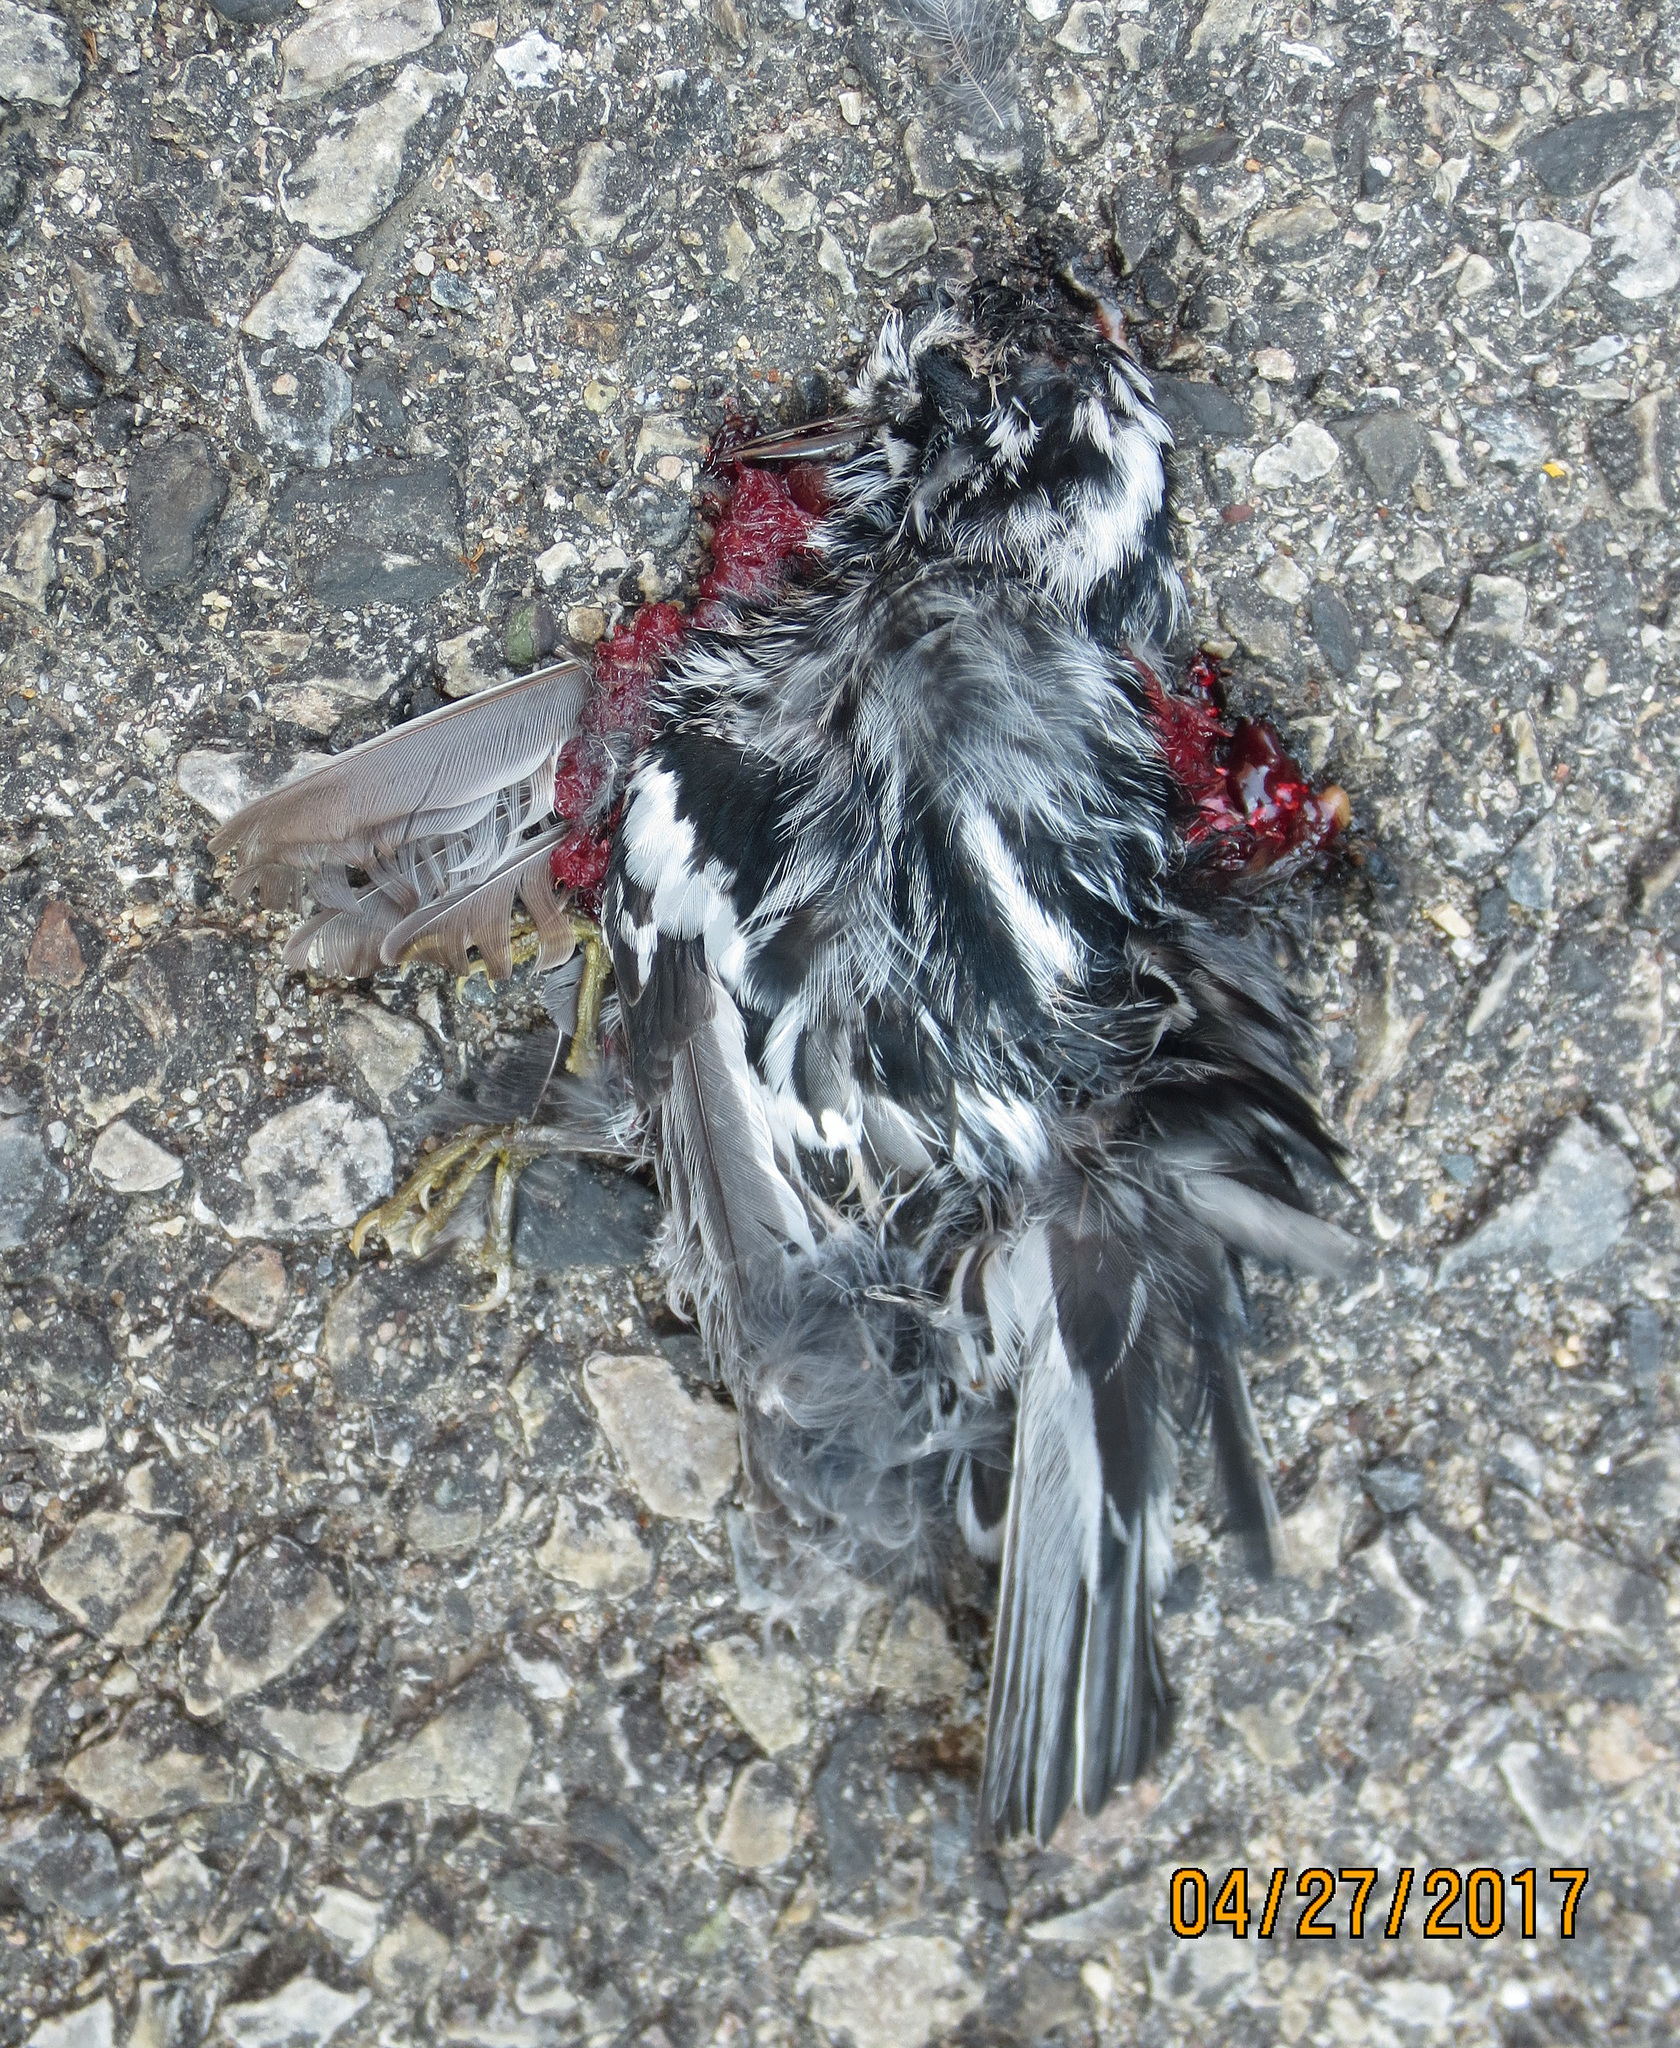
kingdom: Animalia
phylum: Chordata
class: Aves
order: Passeriformes
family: Parulidae
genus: Mniotilta
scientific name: Mniotilta varia
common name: Black-and-white warbler
